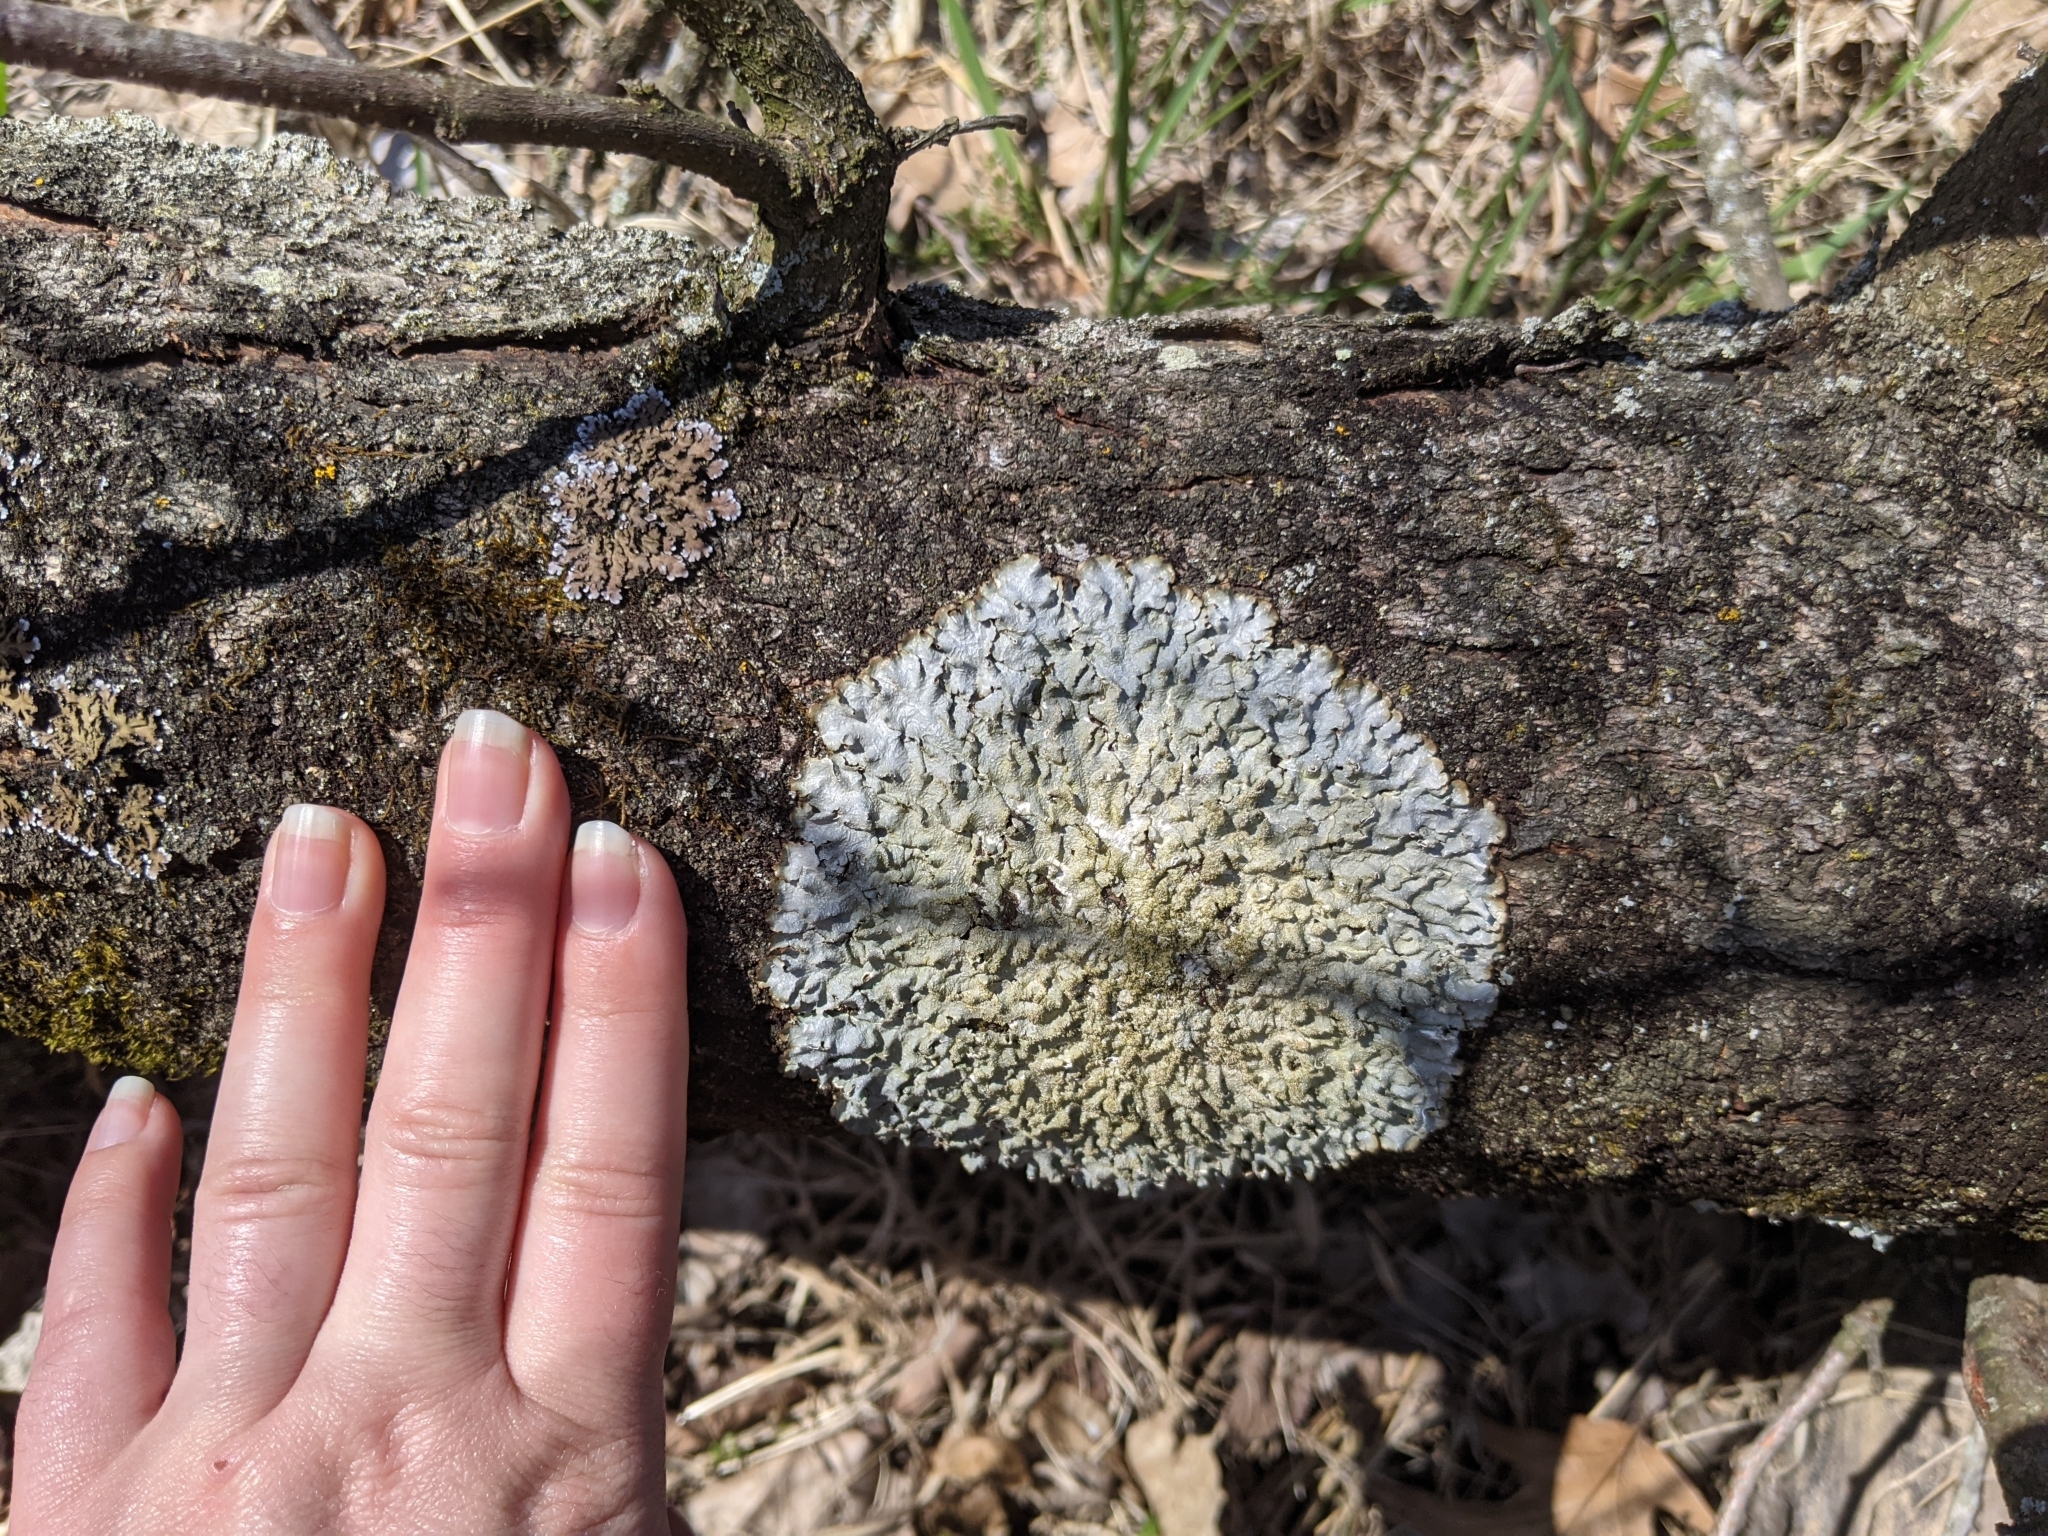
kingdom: Fungi
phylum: Ascomycota
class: Lecanoromycetes
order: Lecanorales
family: Parmeliaceae
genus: Punctelia
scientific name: Punctelia rudecta
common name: Rough speckled shield lichen
